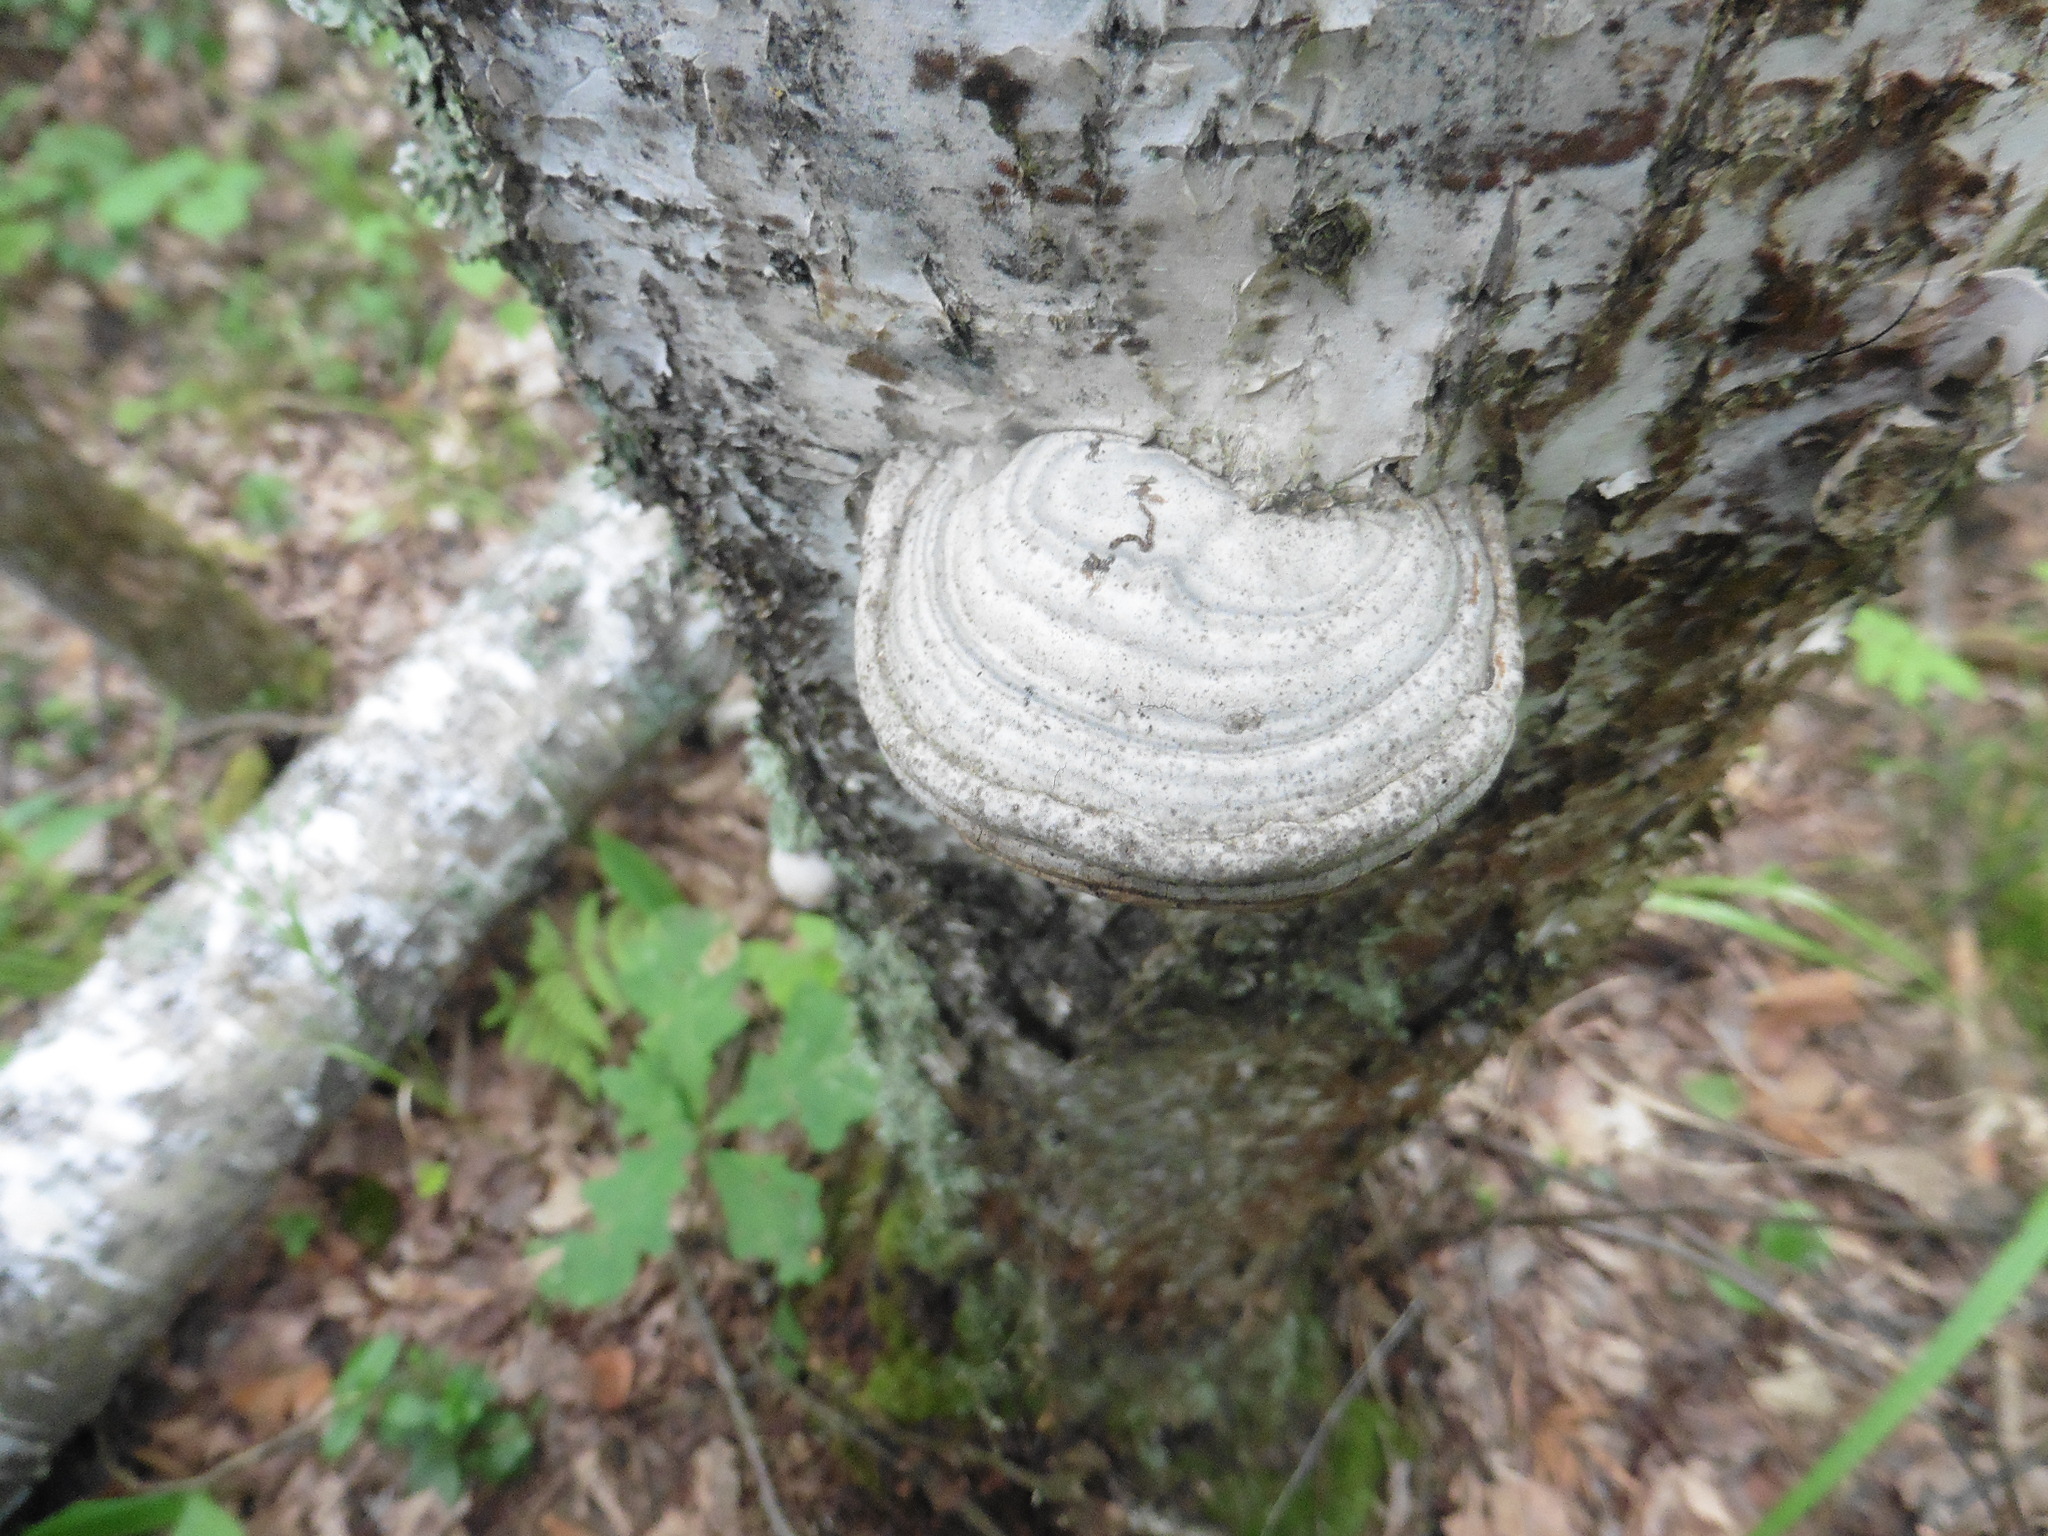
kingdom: Fungi
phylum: Basidiomycota
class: Agaricomycetes
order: Polyporales
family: Polyporaceae
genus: Fomes
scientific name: Fomes fomentarius
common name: Hoof fungus
